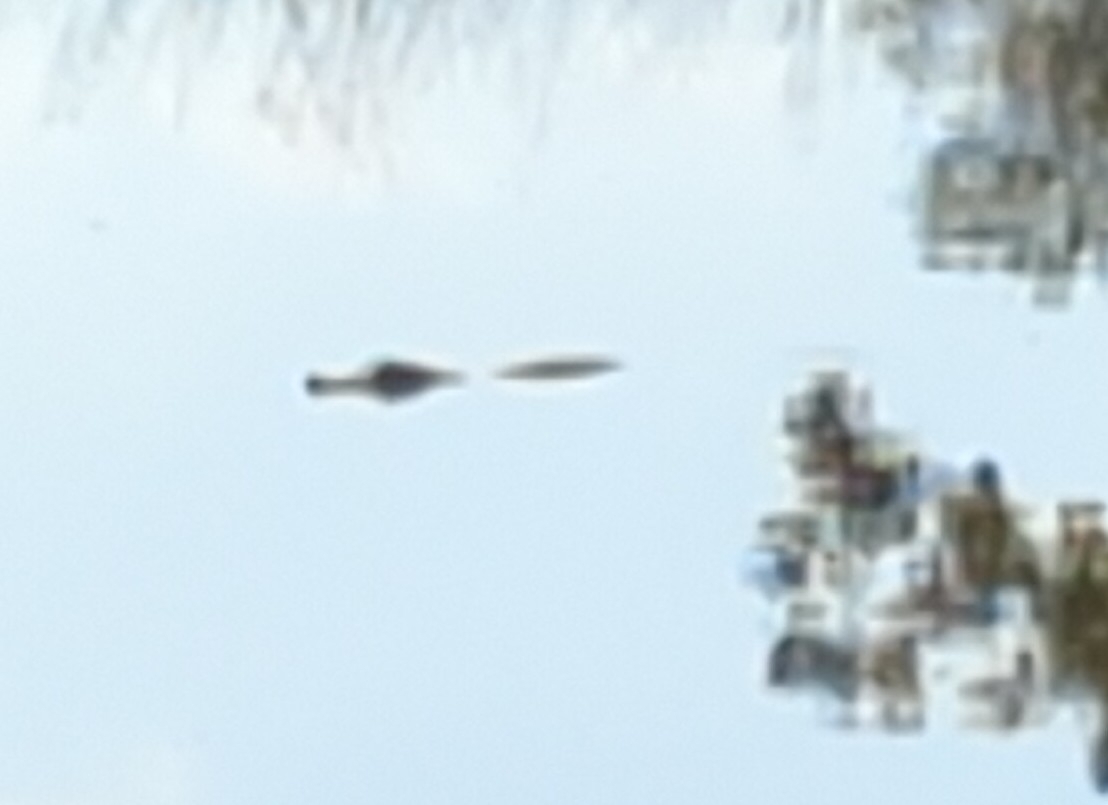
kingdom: Animalia
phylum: Chordata
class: Crocodylia
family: Alligatoridae
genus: Alligator
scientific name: Alligator mississippiensis
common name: American alligator
